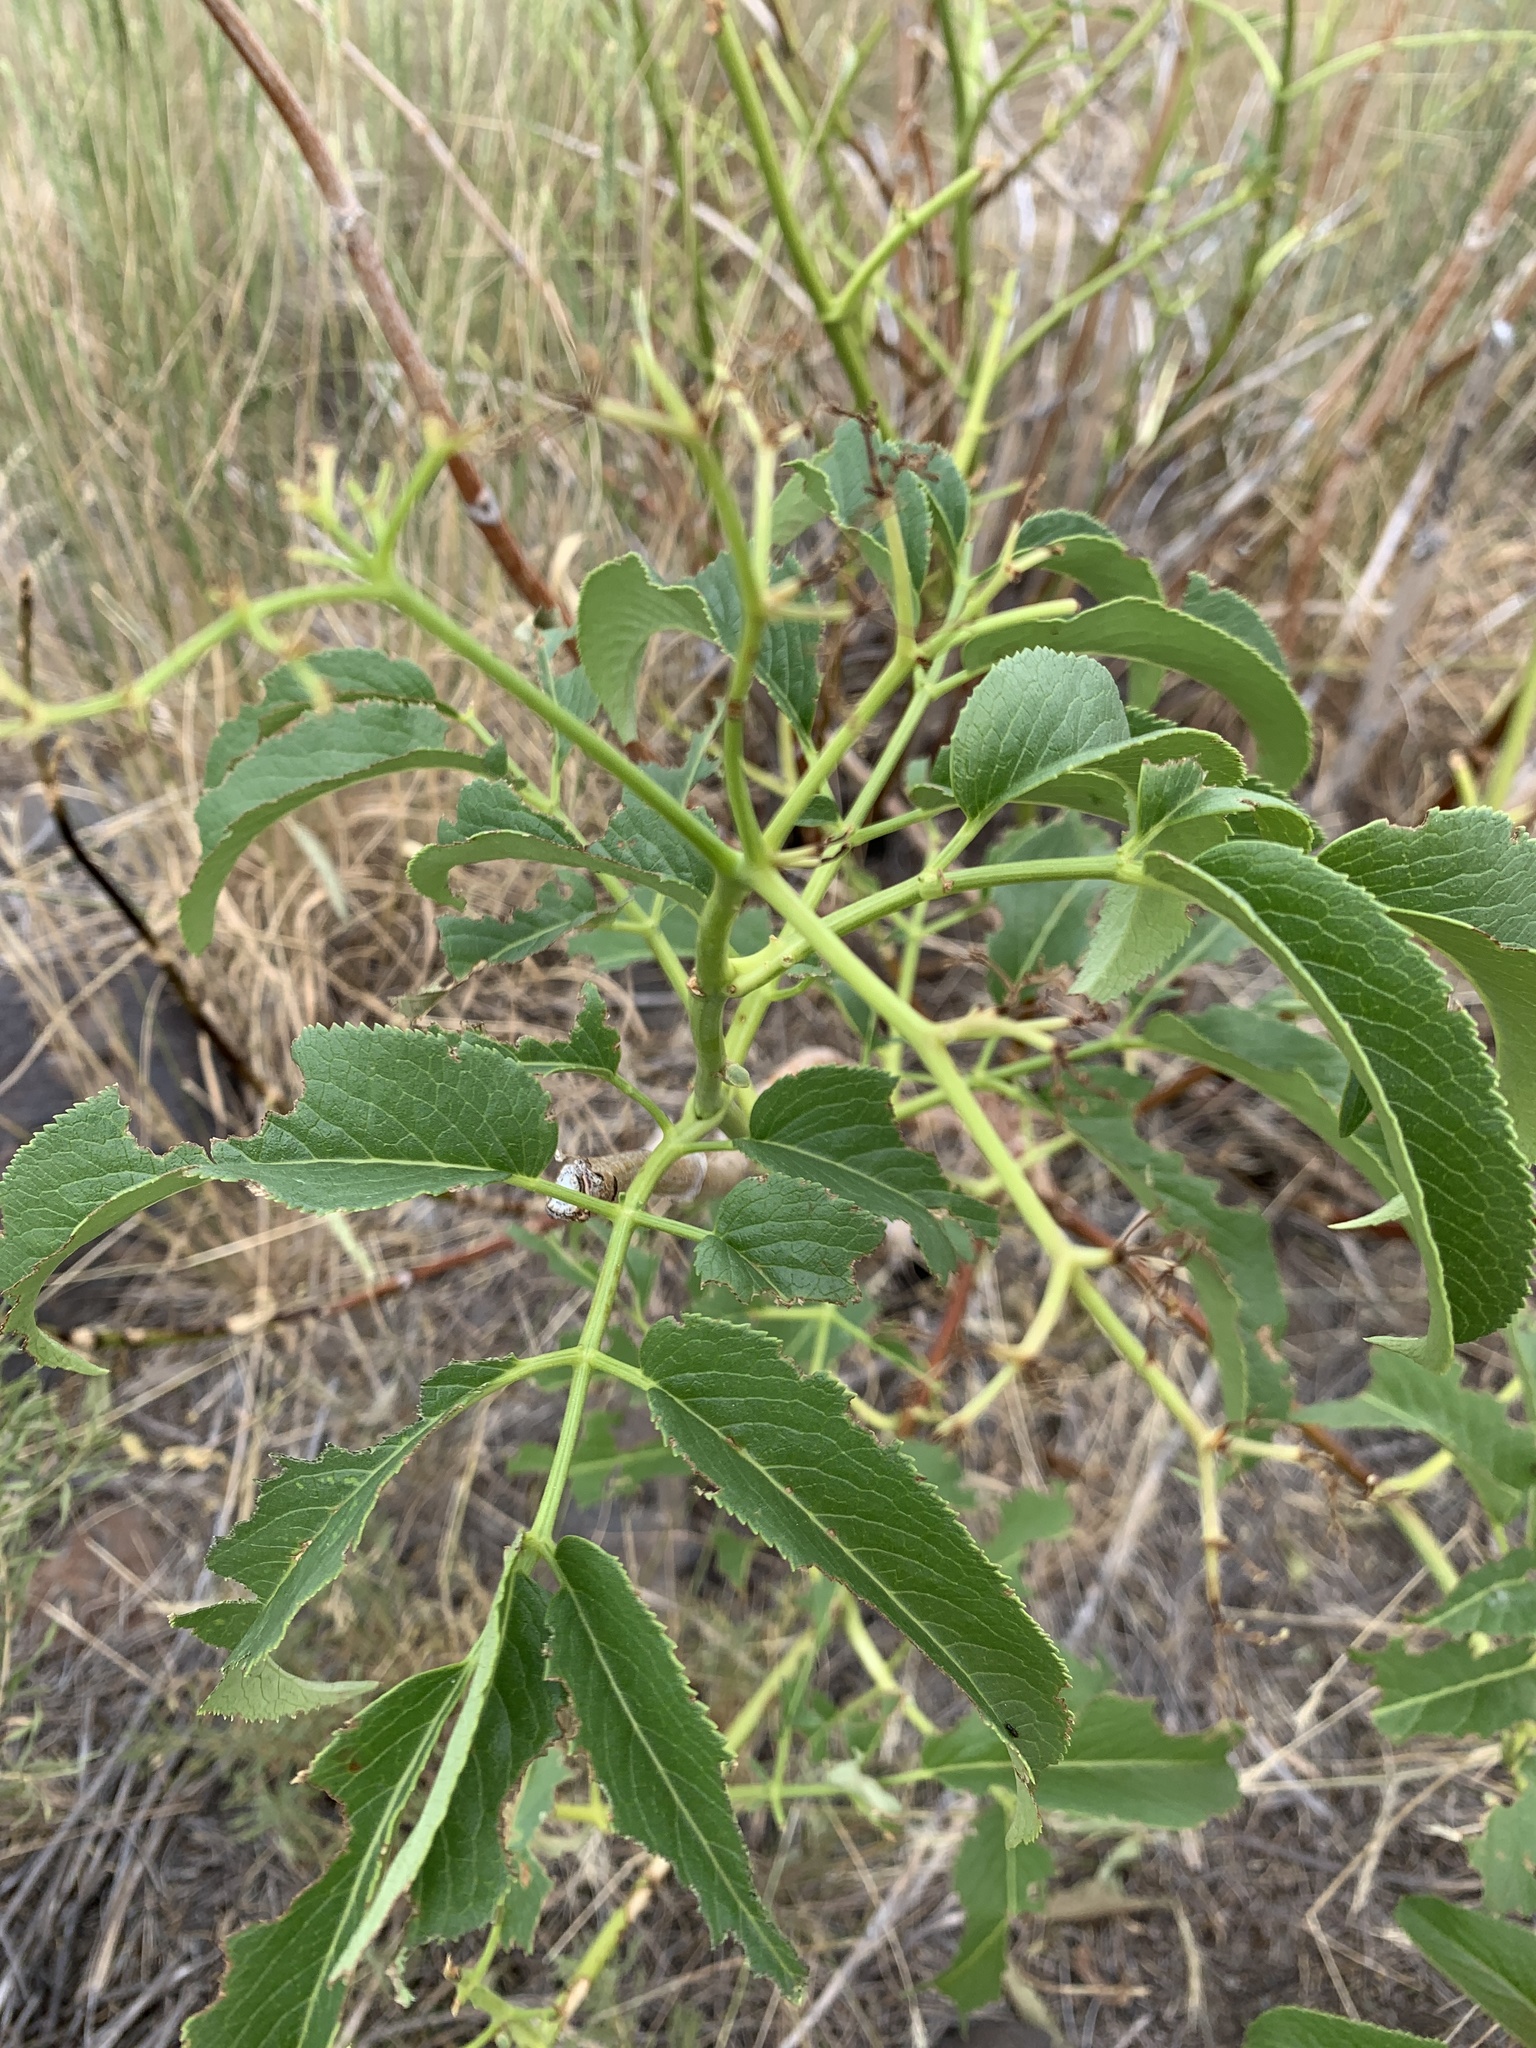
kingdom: Plantae
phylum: Tracheophyta
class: Magnoliopsida
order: Dipsacales
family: Viburnaceae
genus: Sambucus
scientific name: Sambucus cerulea
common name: Blue elder
